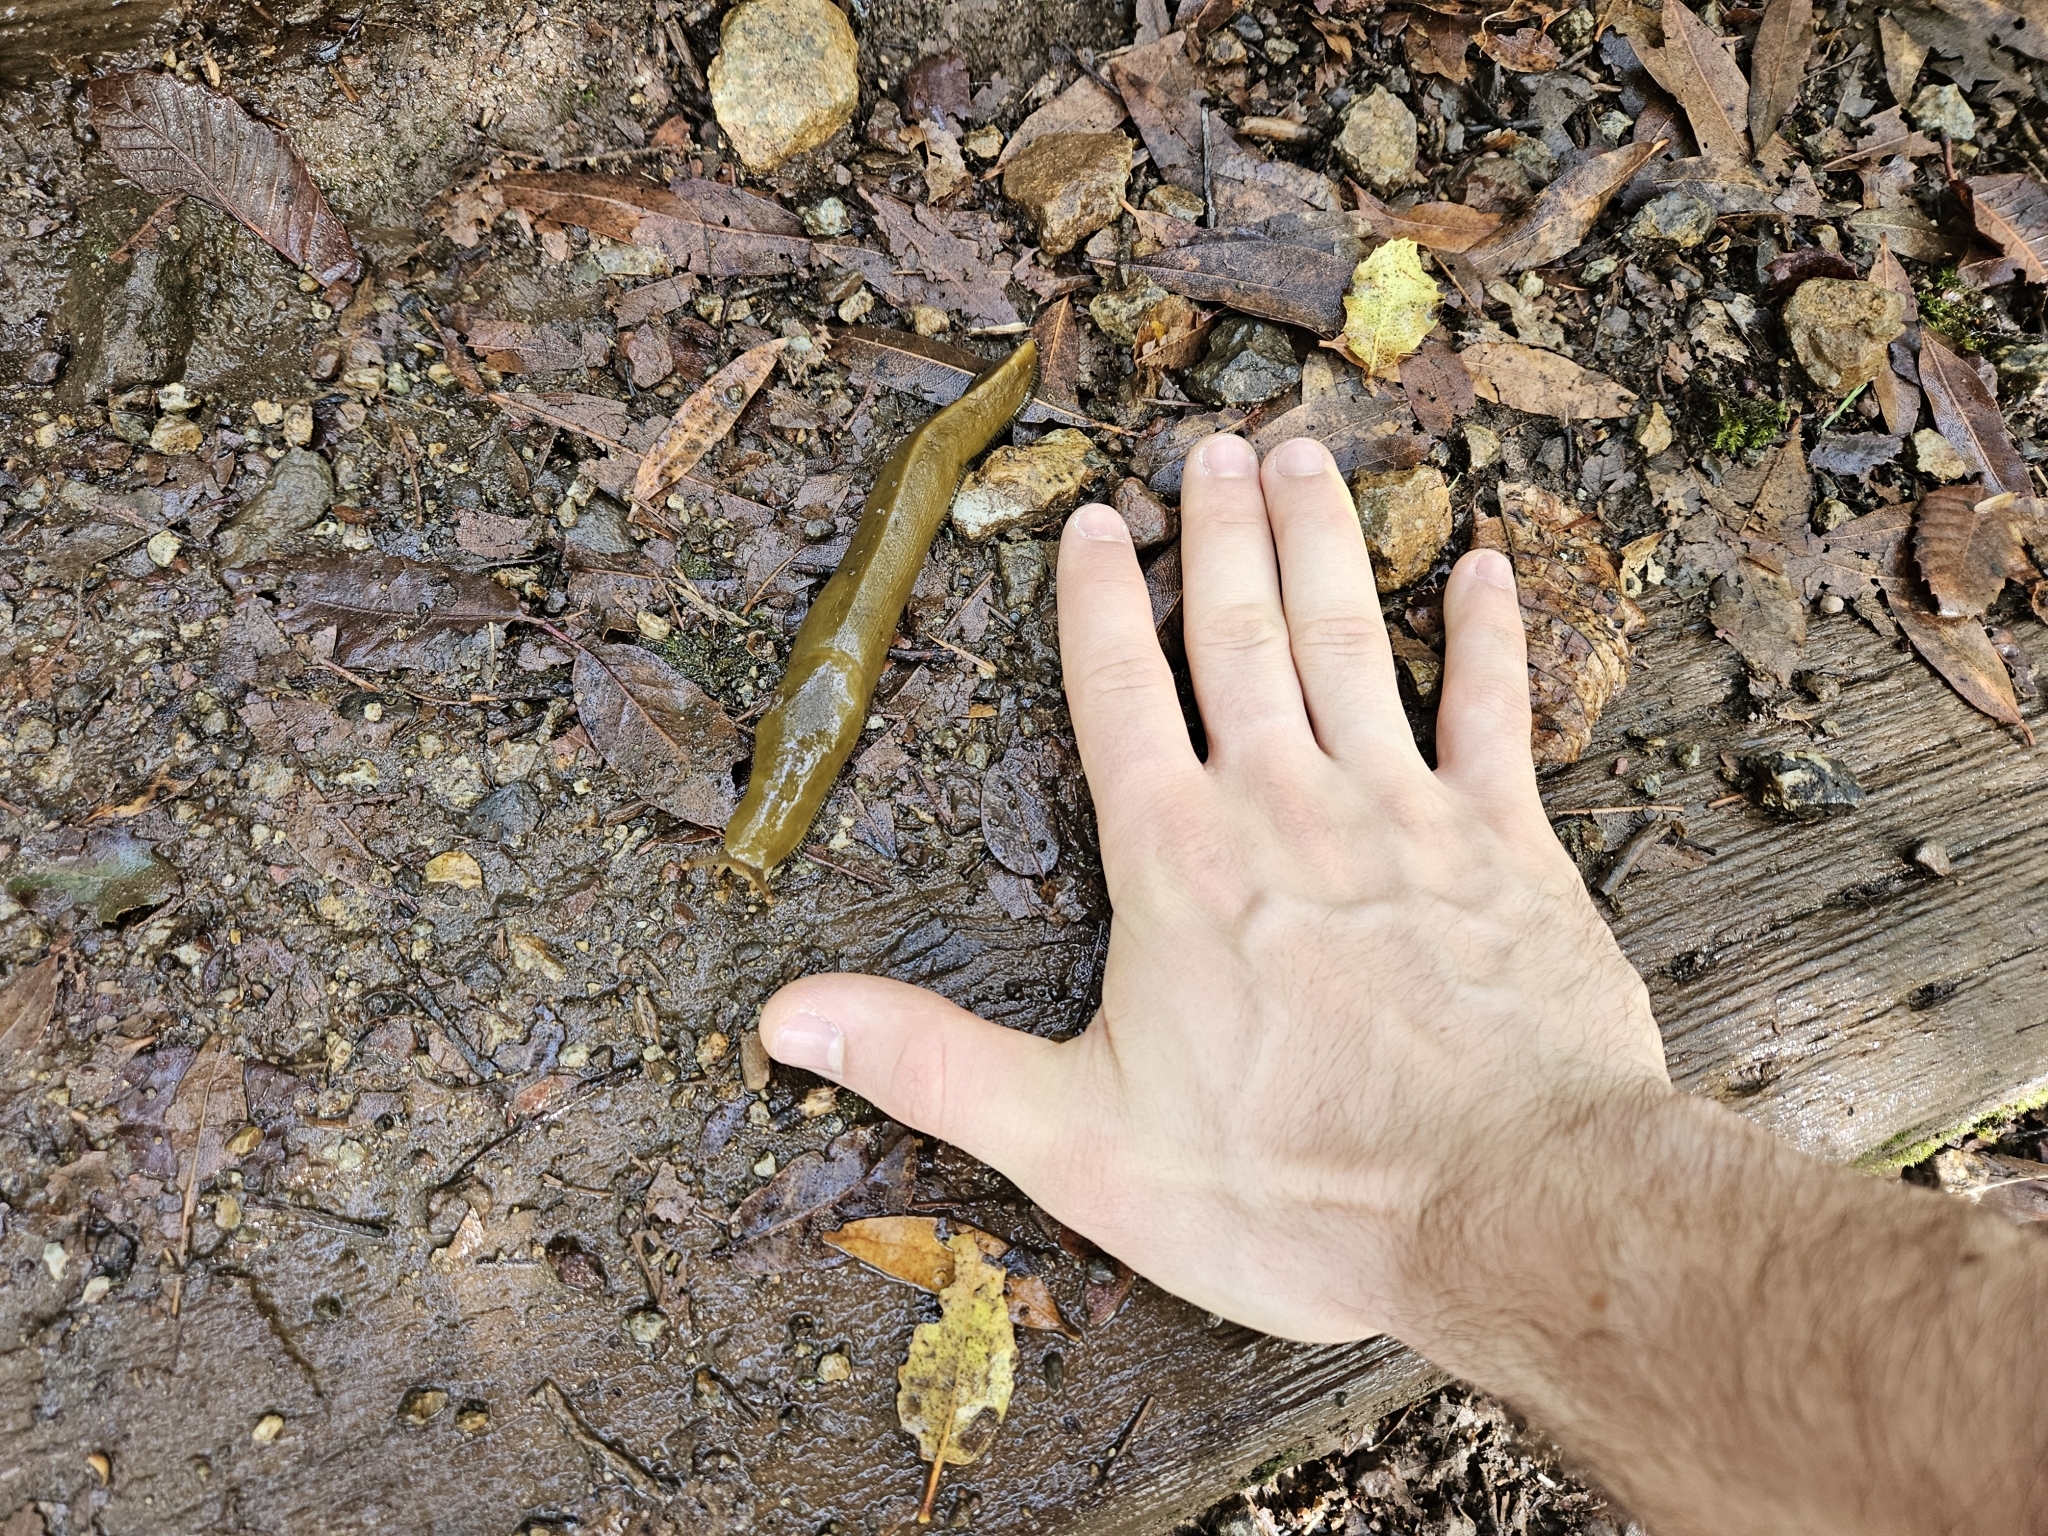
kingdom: Animalia
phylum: Mollusca
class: Gastropoda
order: Stylommatophora
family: Ariolimacidae
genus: Ariolimax
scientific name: Ariolimax buttoni
